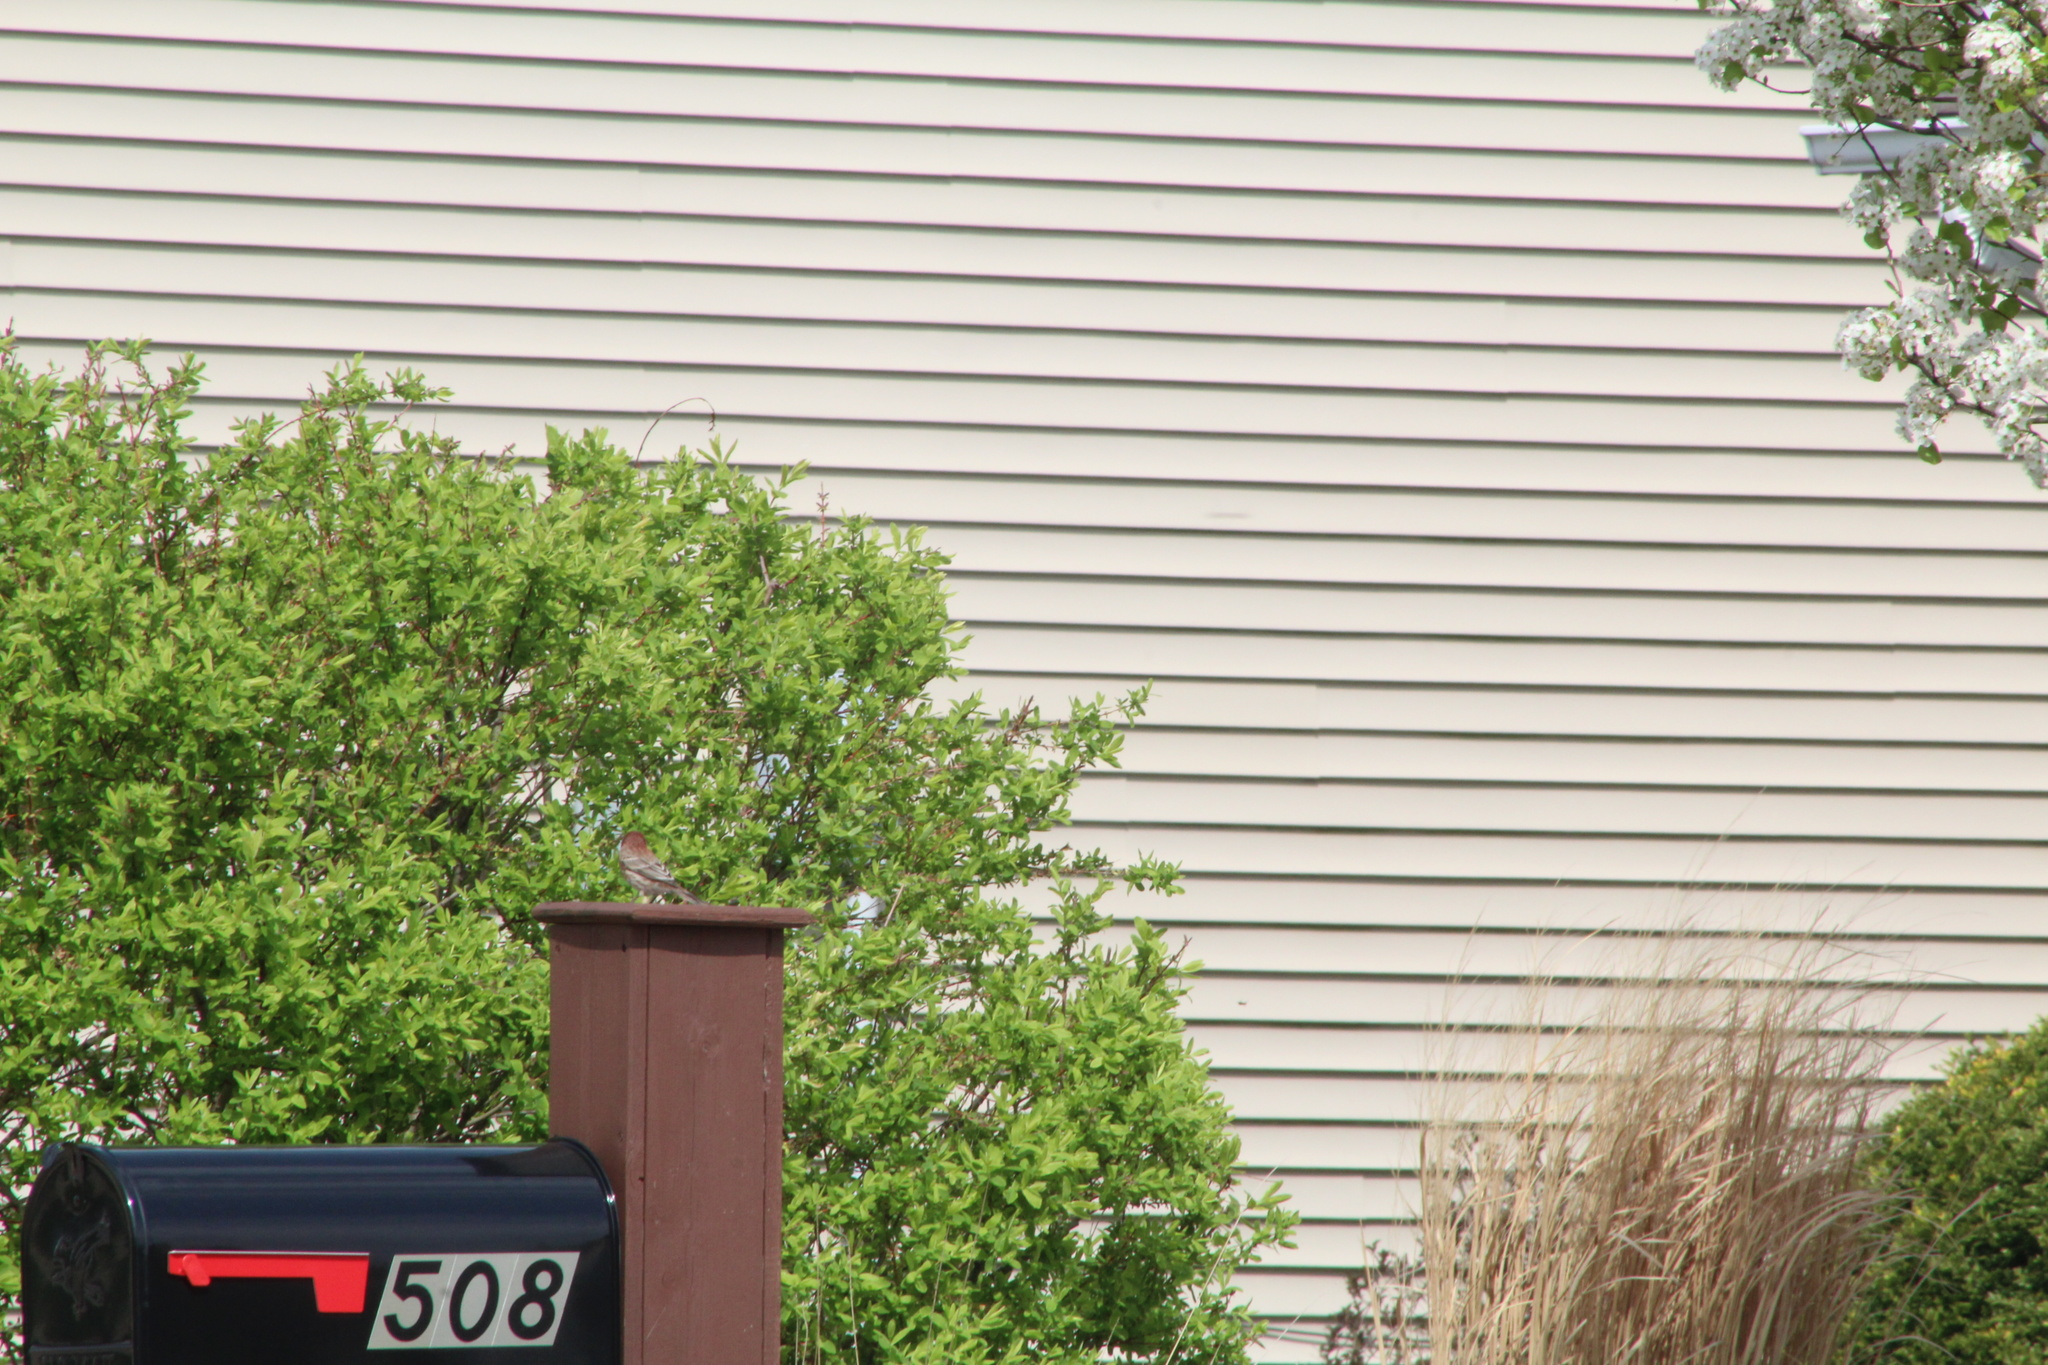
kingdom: Animalia
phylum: Chordata
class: Aves
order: Passeriformes
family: Fringillidae
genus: Haemorhous
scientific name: Haemorhous mexicanus
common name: House finch
